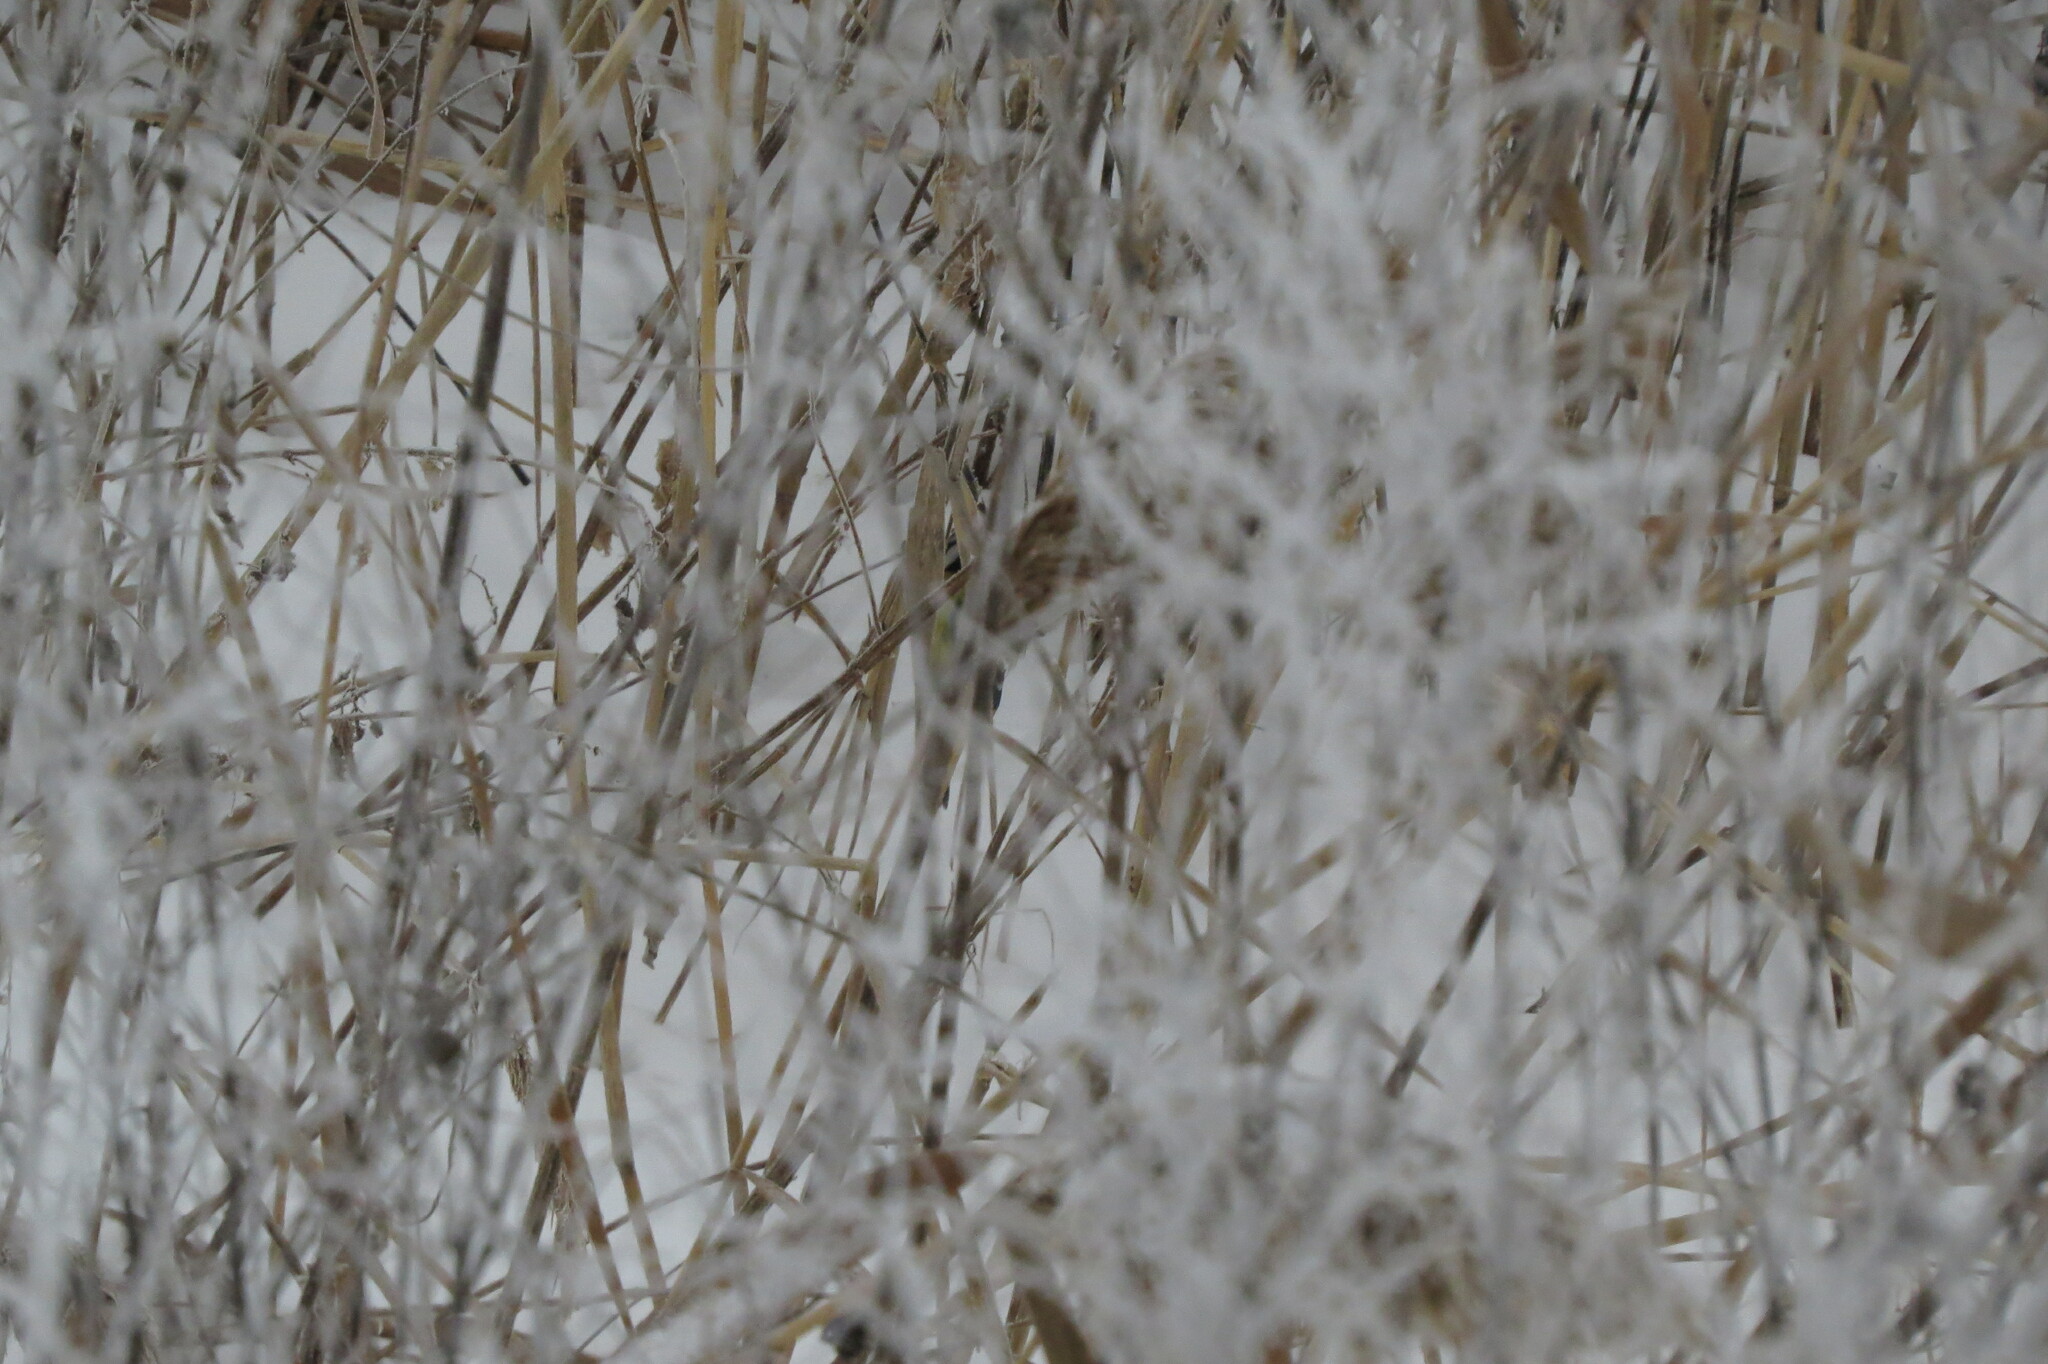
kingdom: Animalia
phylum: Chordata
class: Aves
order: Passeriformes
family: Paridae
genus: Cyanistes
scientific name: Cyanistes caeruleus
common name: Eurasian blue tit
